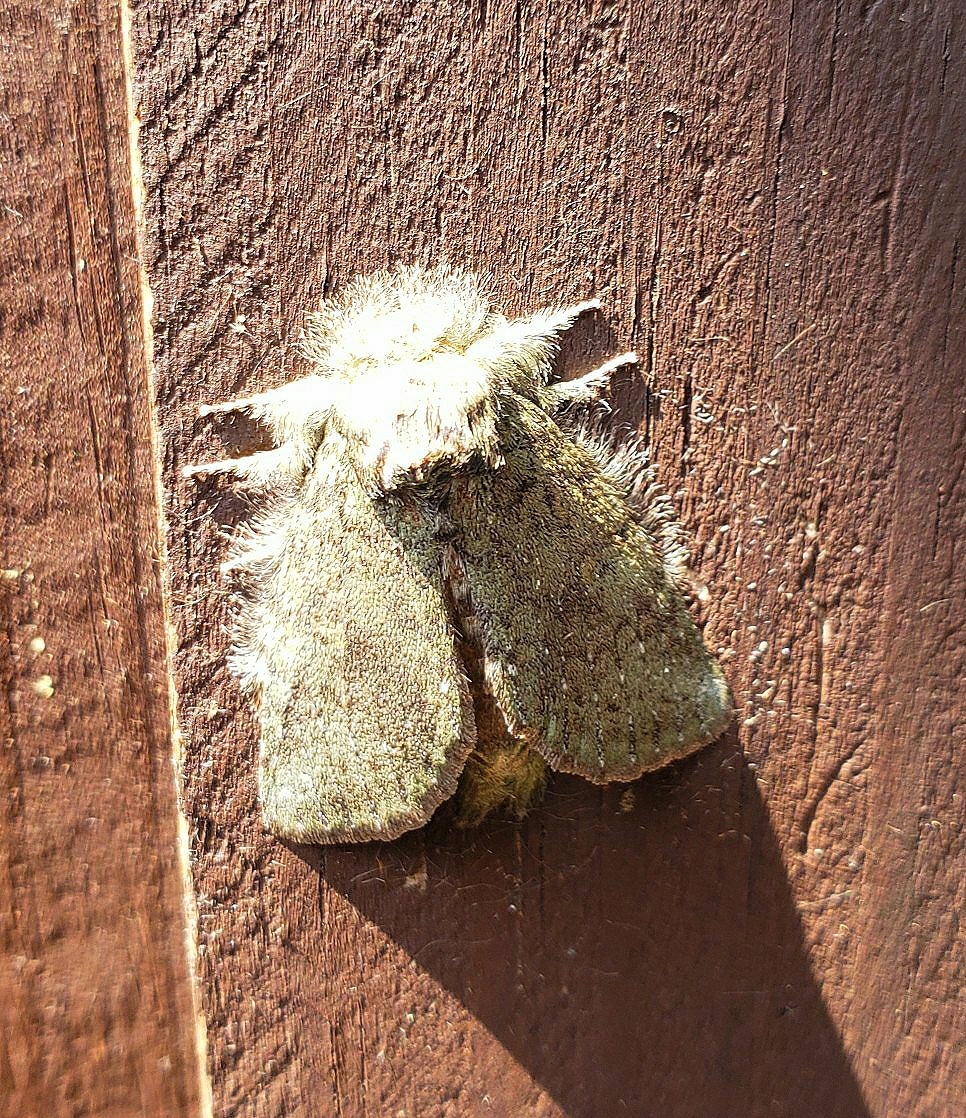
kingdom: Animalia
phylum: Arthropoda
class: Insecta
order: Lepidoptera
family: Notodontidae
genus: Disphragis
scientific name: Disphragis Cecrita guttivitta
